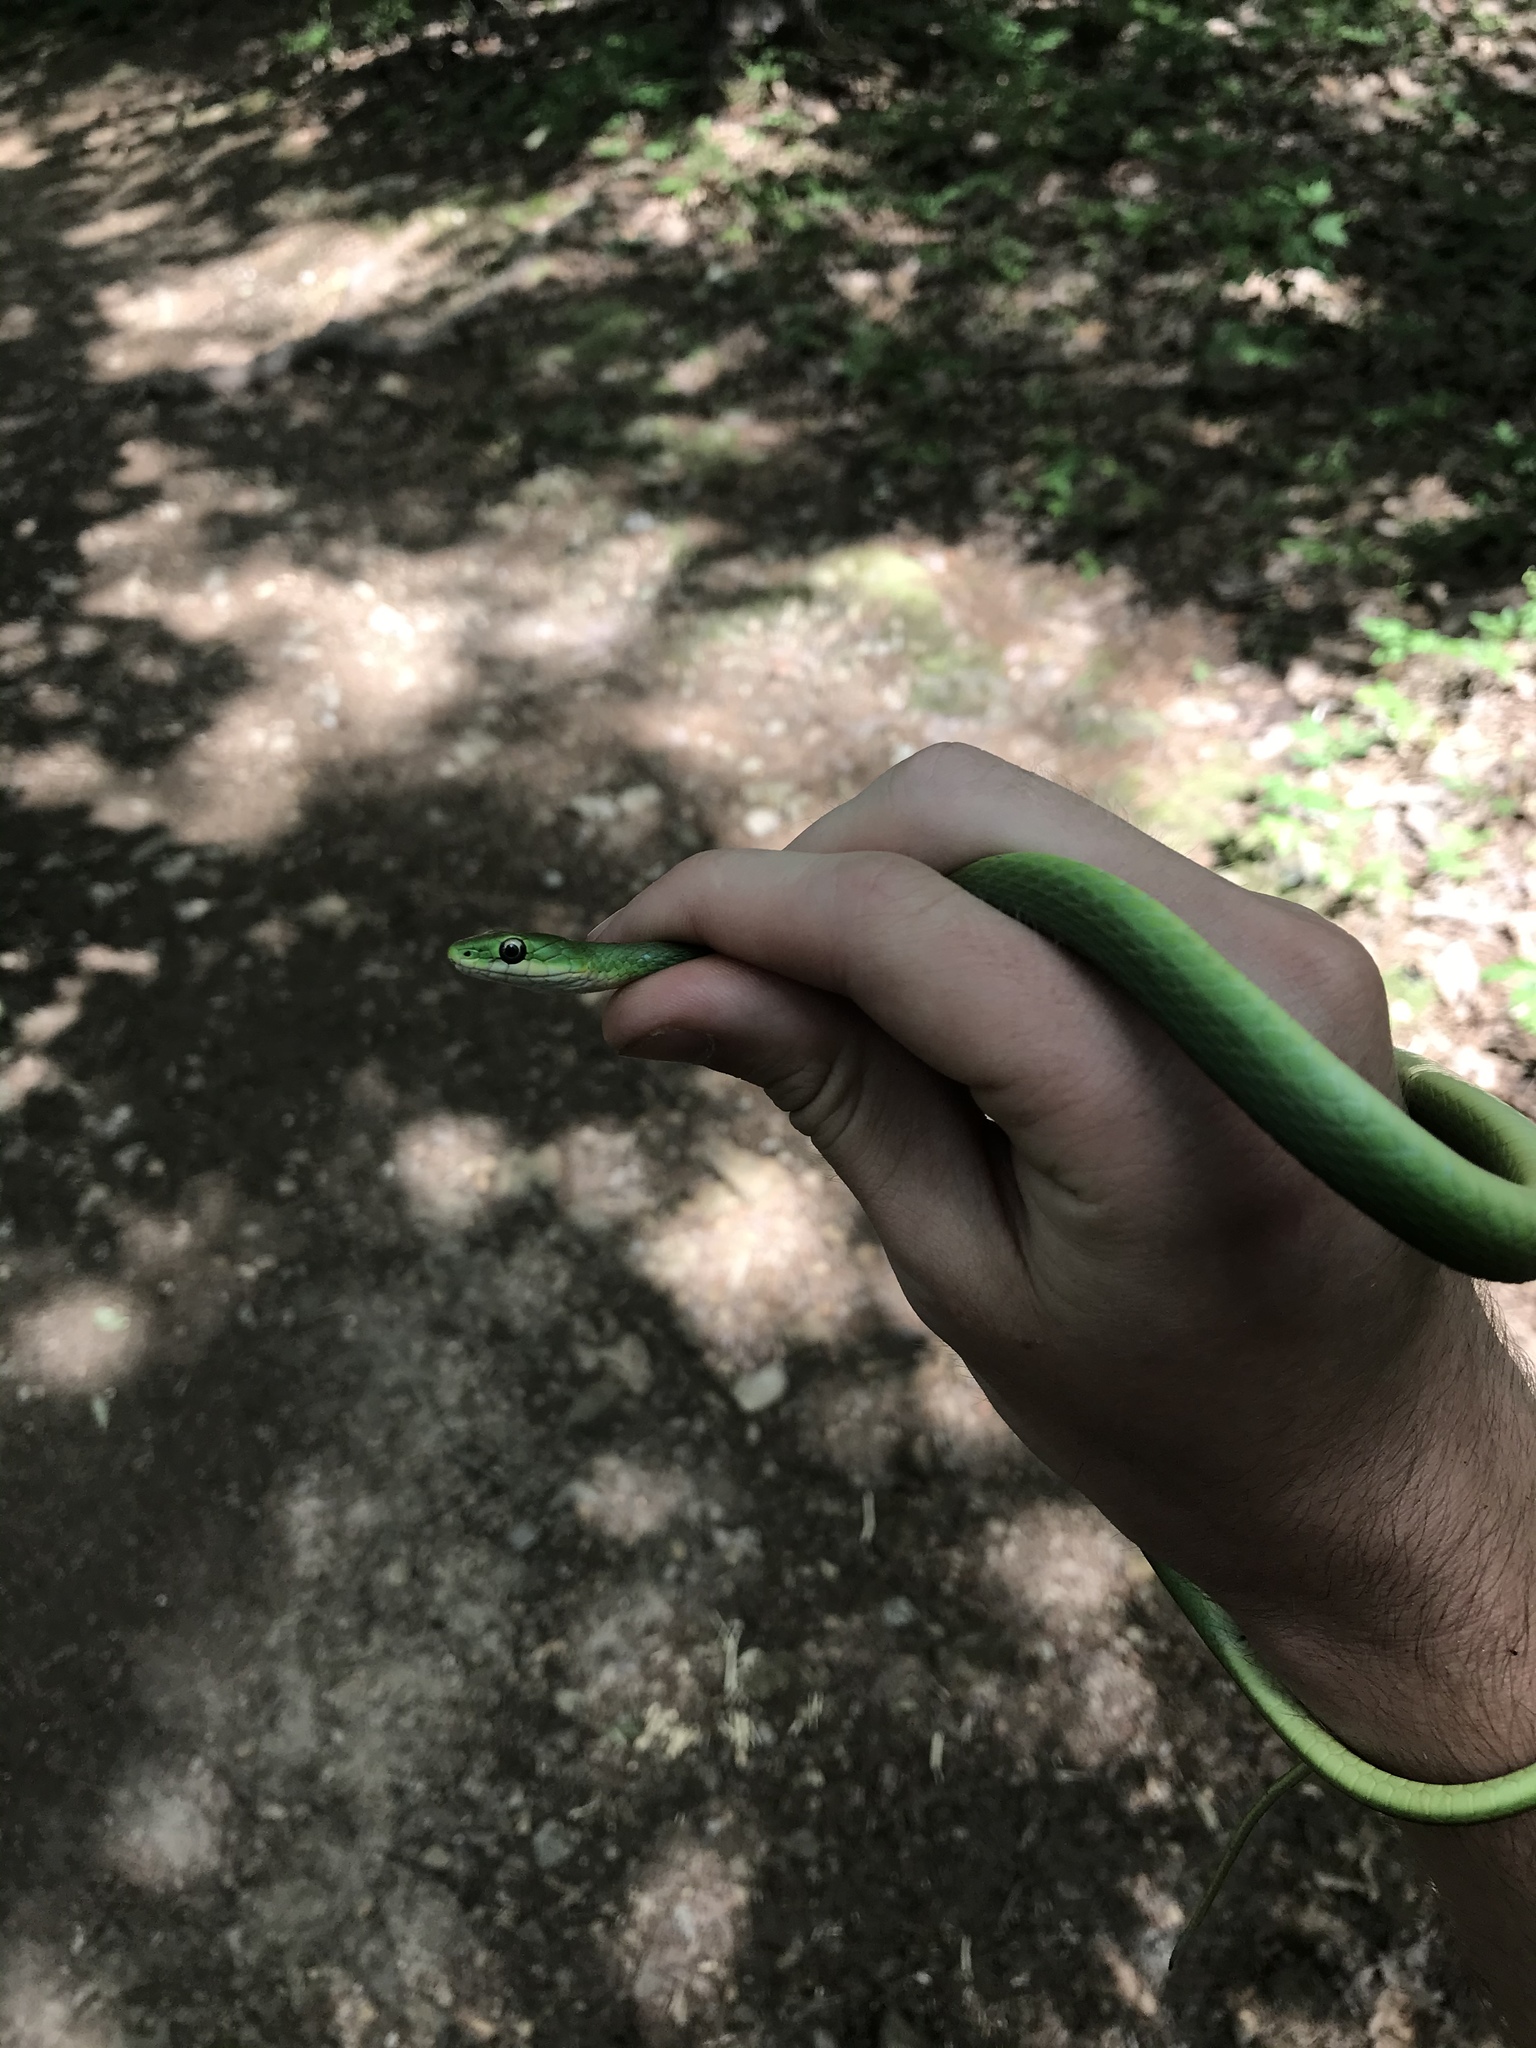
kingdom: Animalia
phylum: Chordata
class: Squamata
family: Colubridae
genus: Opheodrys
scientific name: Opheodrys aestivus
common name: Rough greensnake
